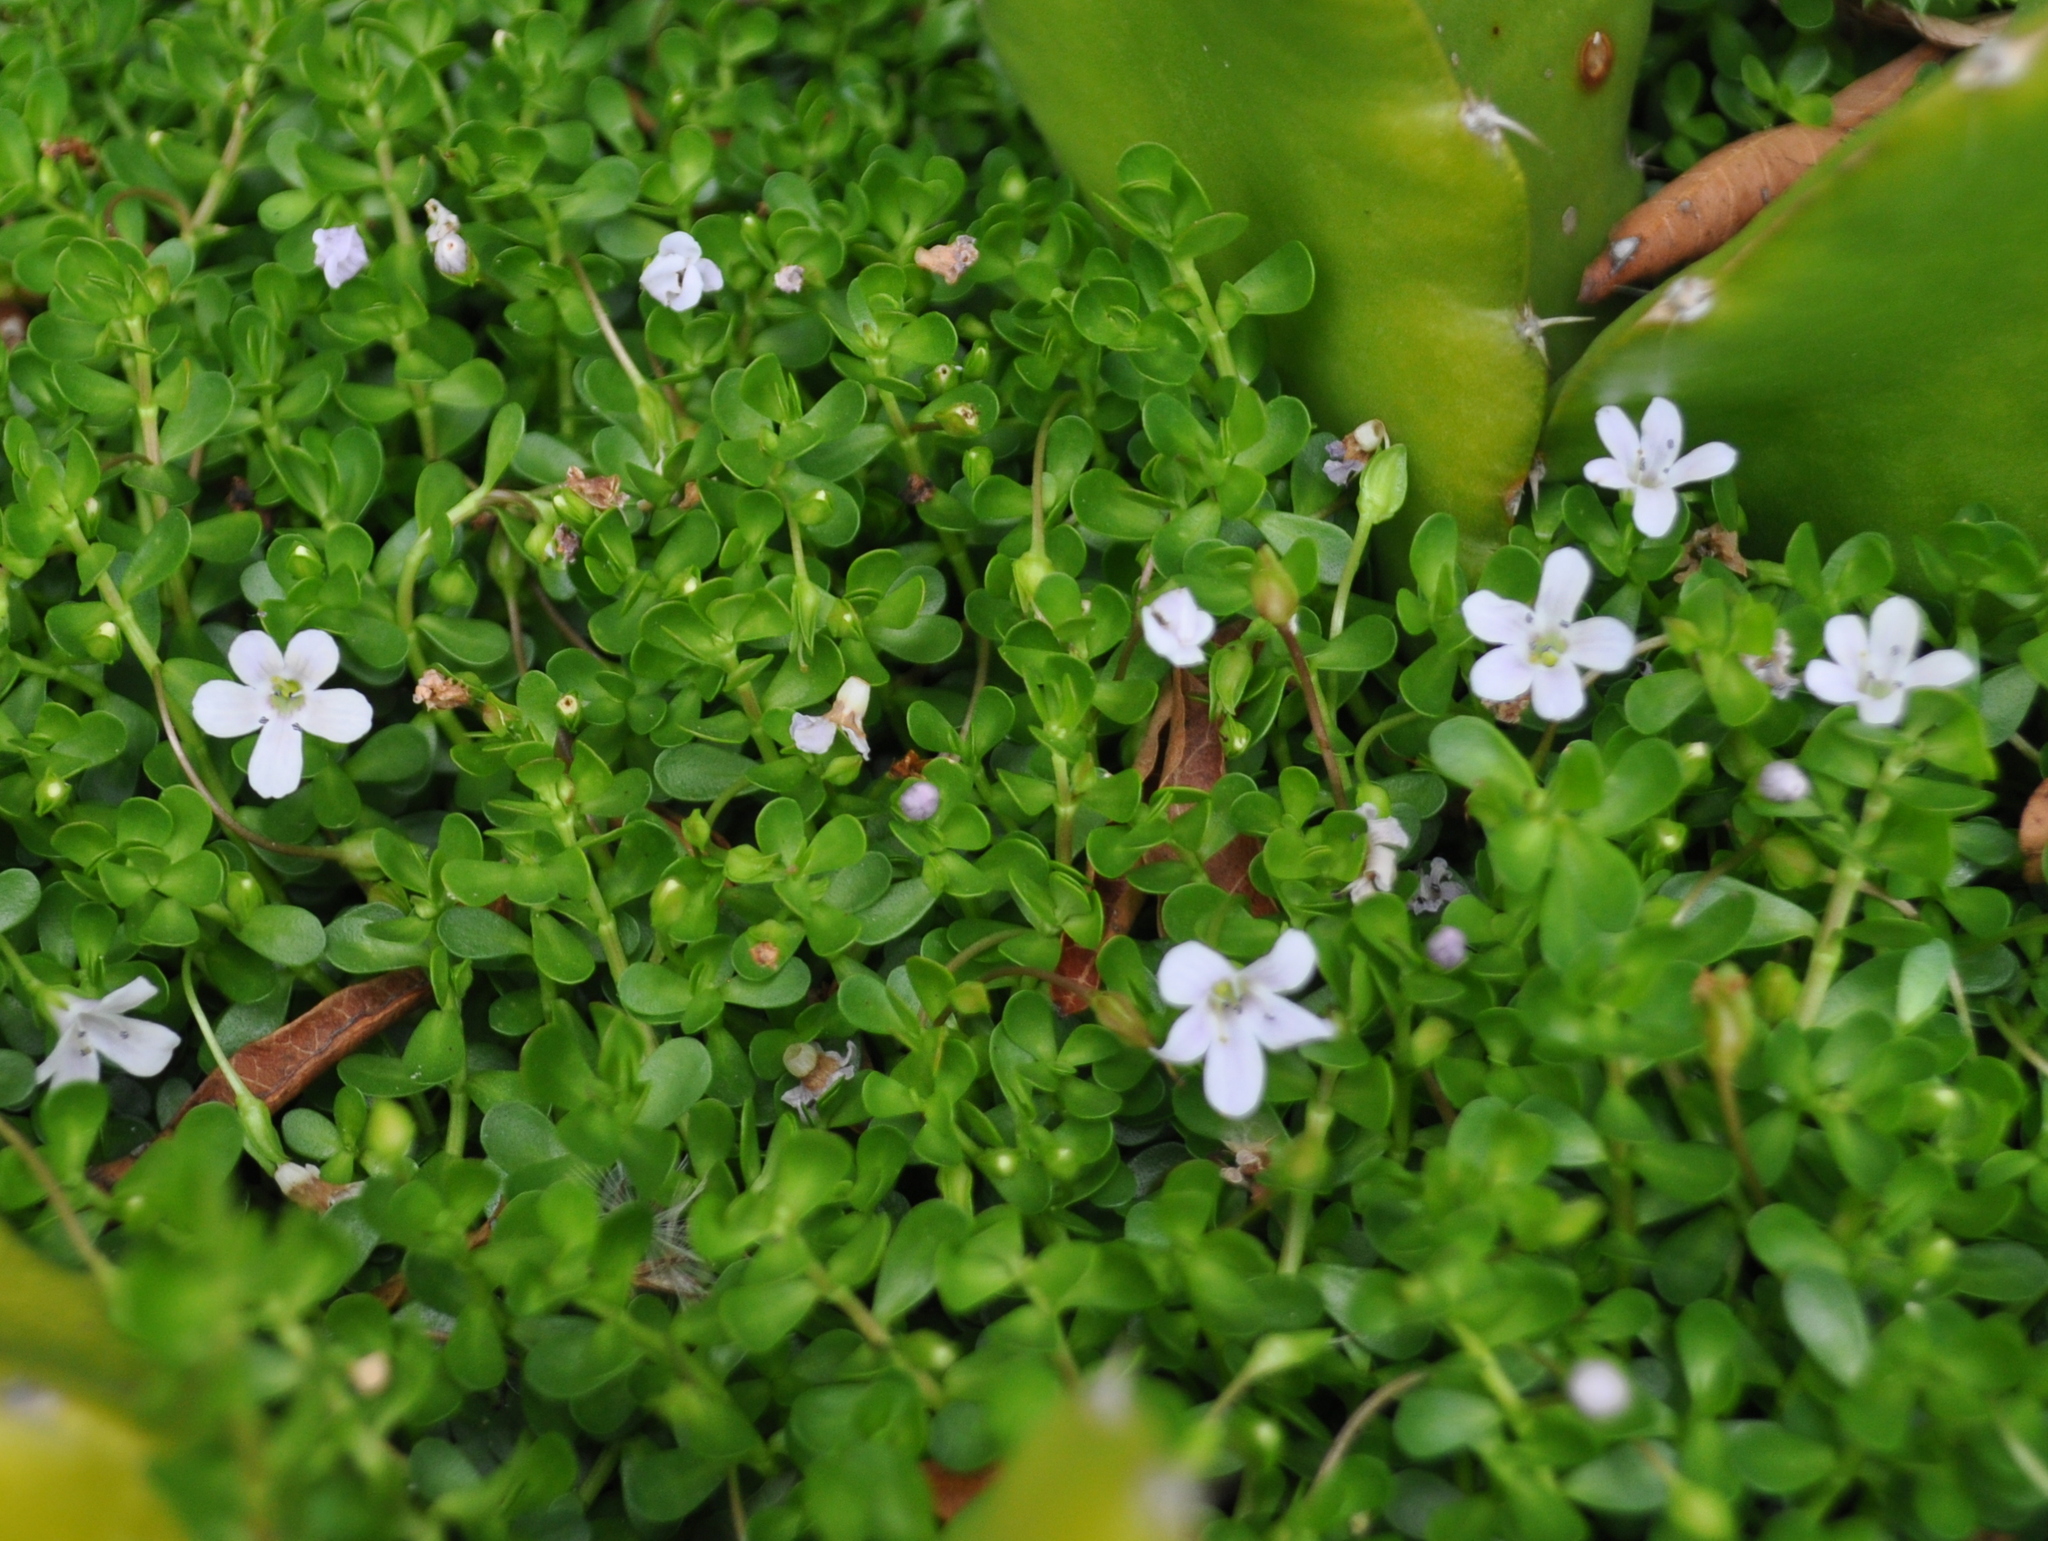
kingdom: Plantae
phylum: Tracheophyta
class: Magnoliopsida
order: Lamiales
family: Plantaginaceae
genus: Bacopa
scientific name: Bacopa monnieri
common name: Indian-pennywort
